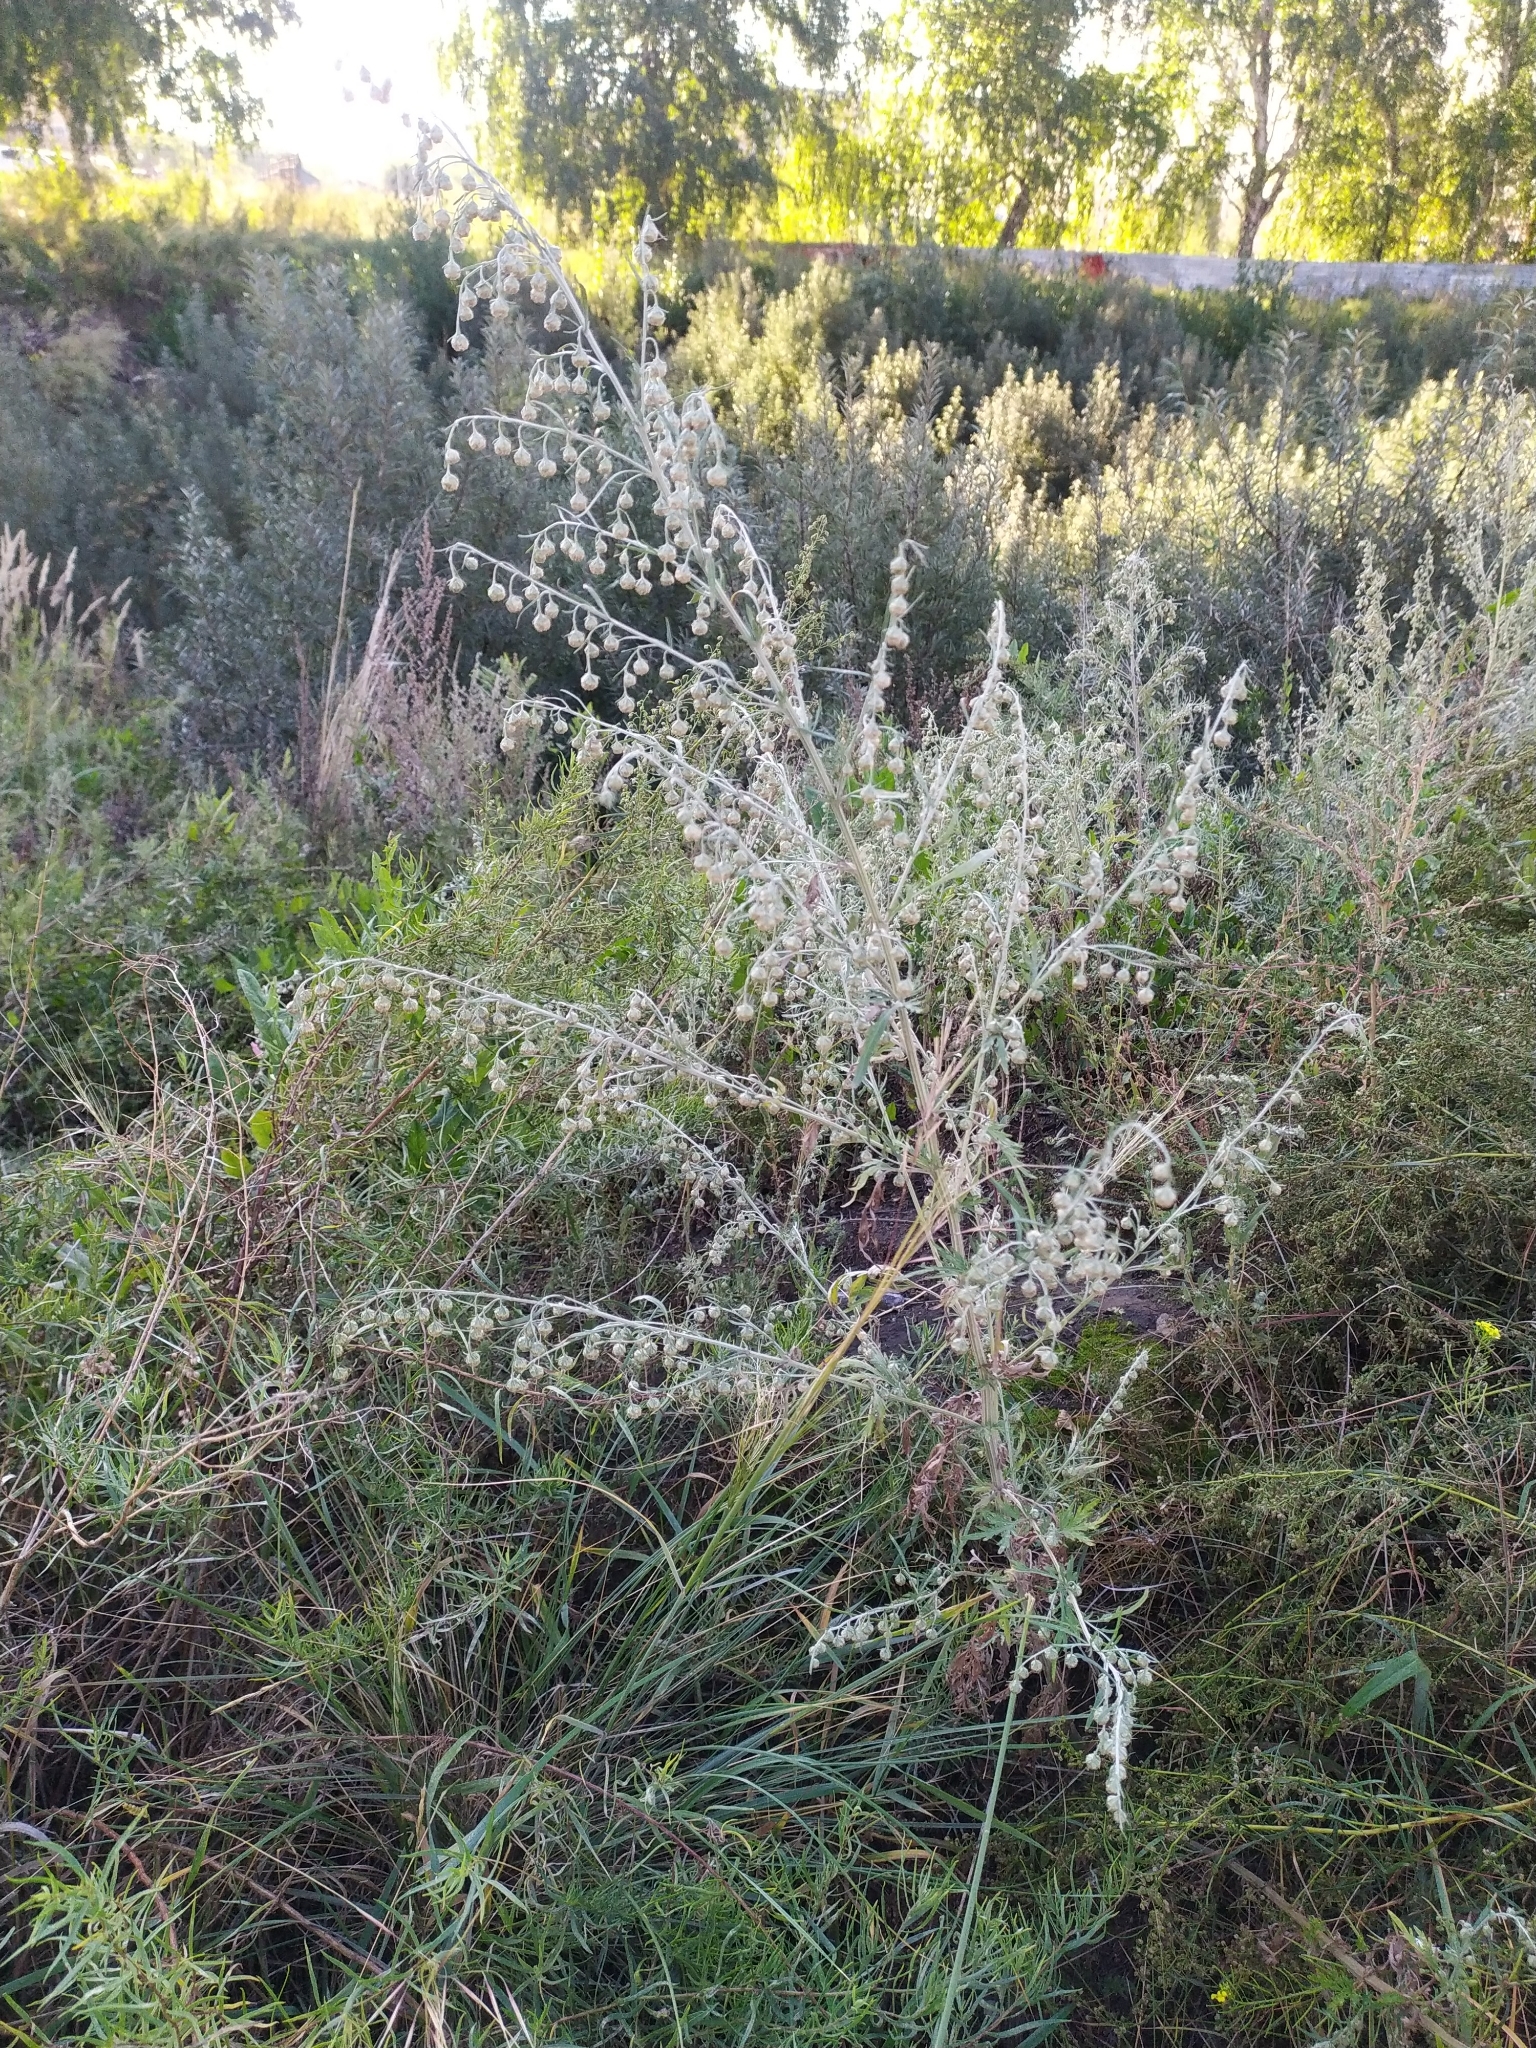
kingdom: Plantae
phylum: Tracheophyta
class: Magnoliopsida
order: Asterales
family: Asteraceae
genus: Artemisia
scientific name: Artemisia sieversiana
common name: Sieversian wormwood
